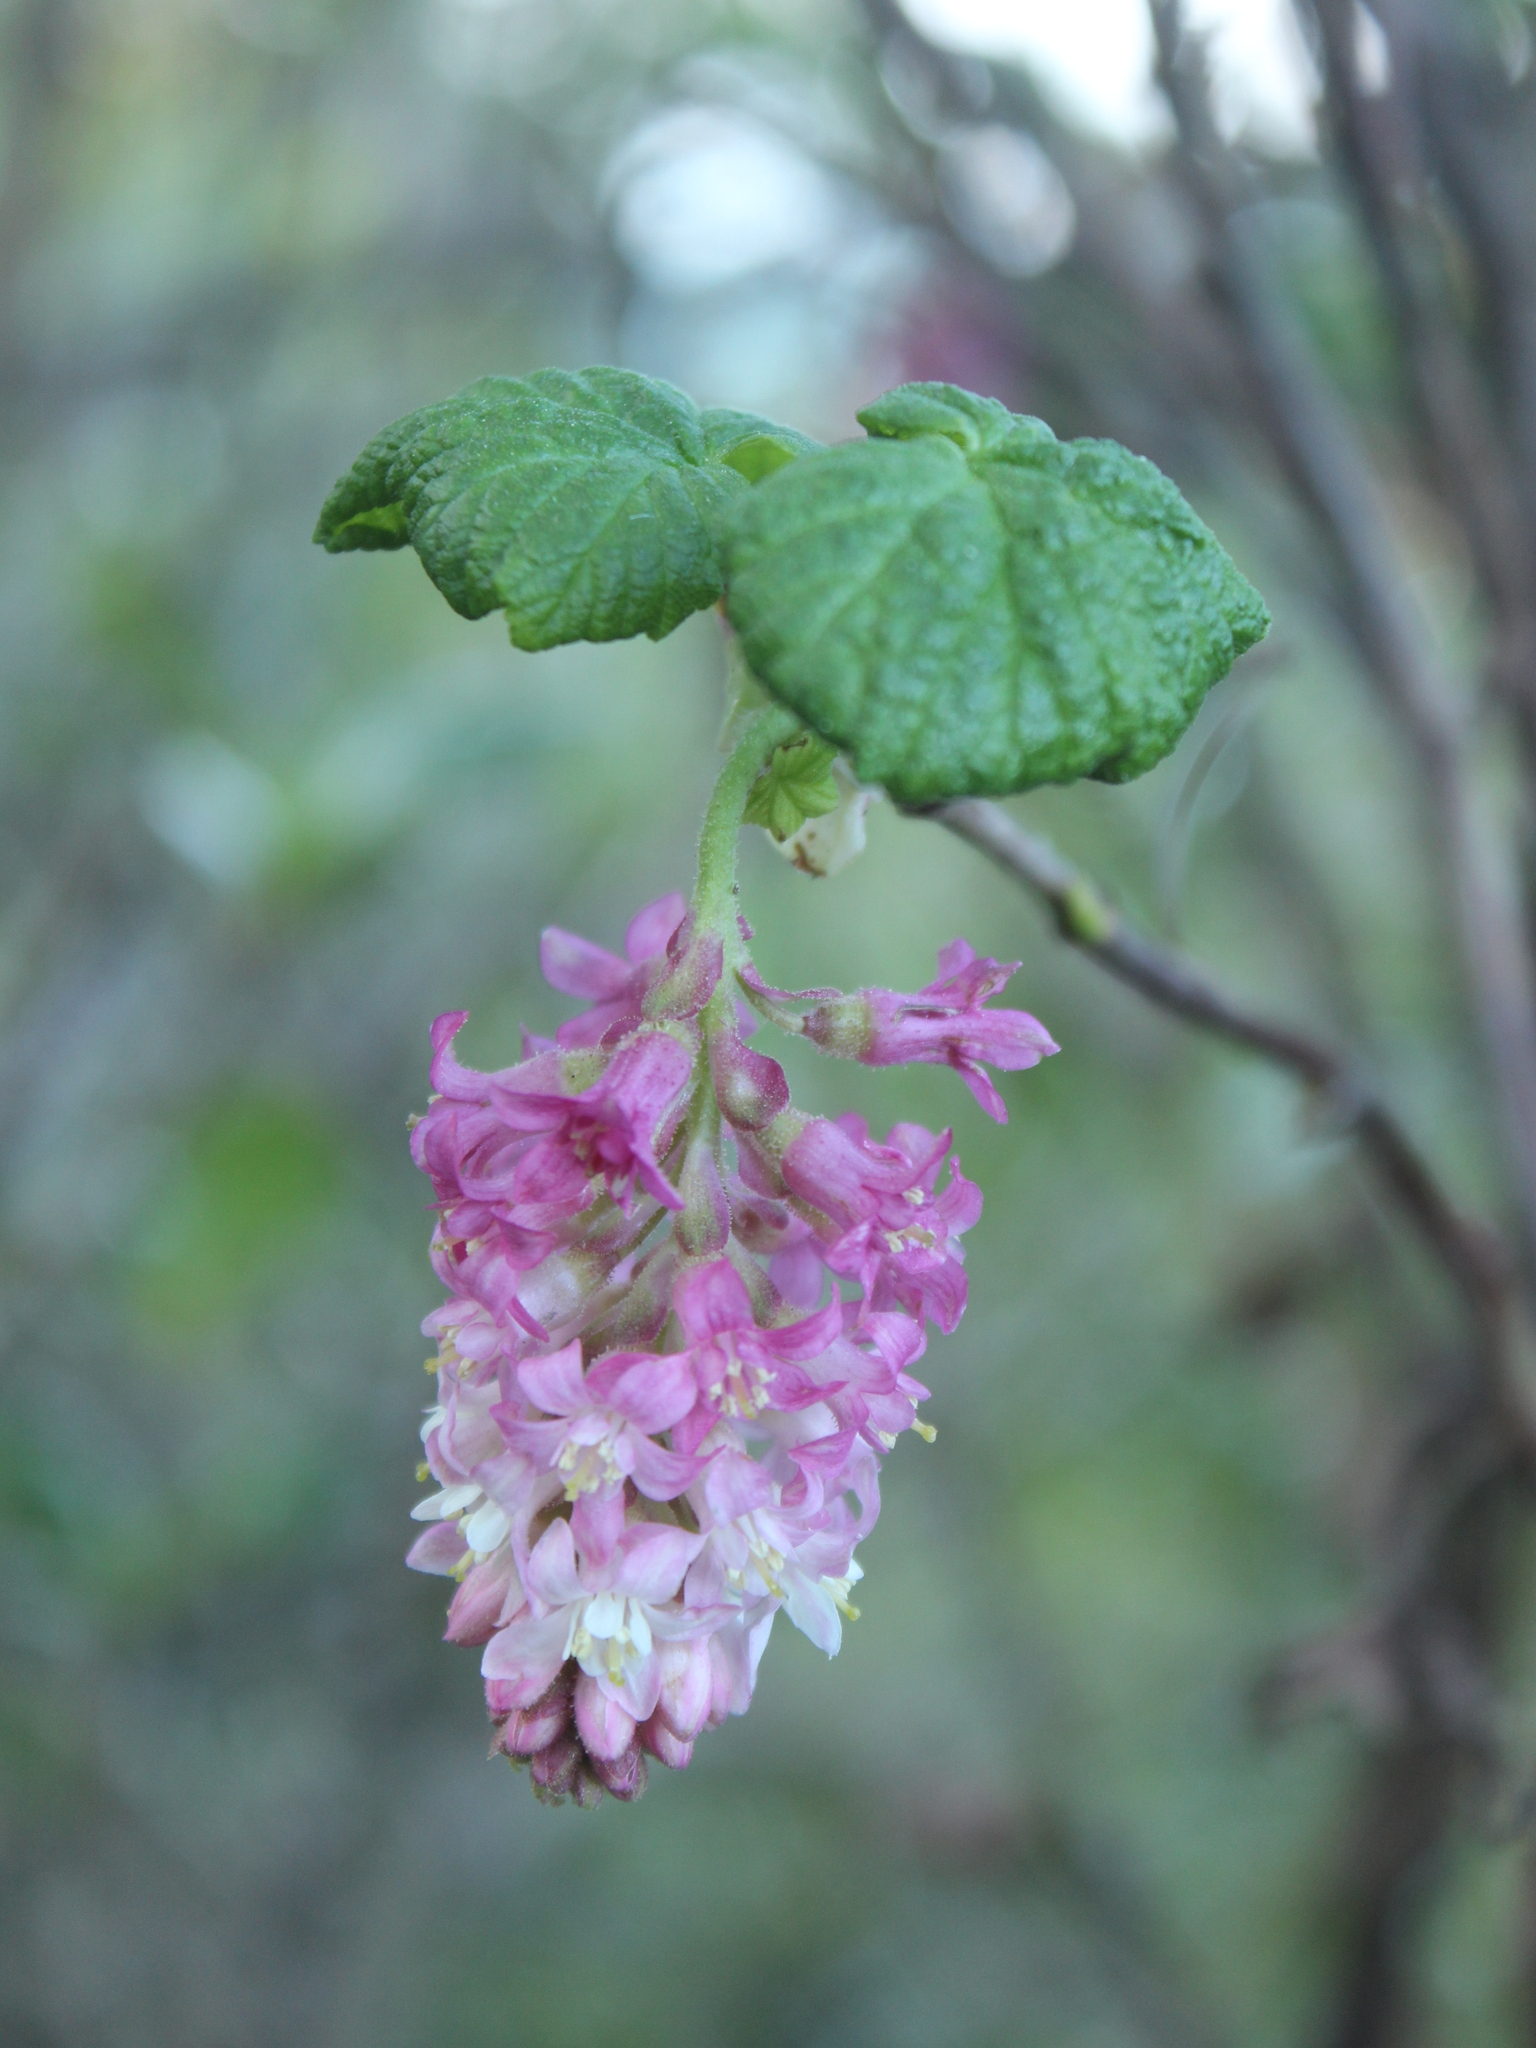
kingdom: Plantae
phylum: Tracheophyta
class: Magnoliopsida
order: Saxifragales
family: Grossulariaceae
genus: Ribes
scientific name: Ribes sanguineum
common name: Flowering currant
